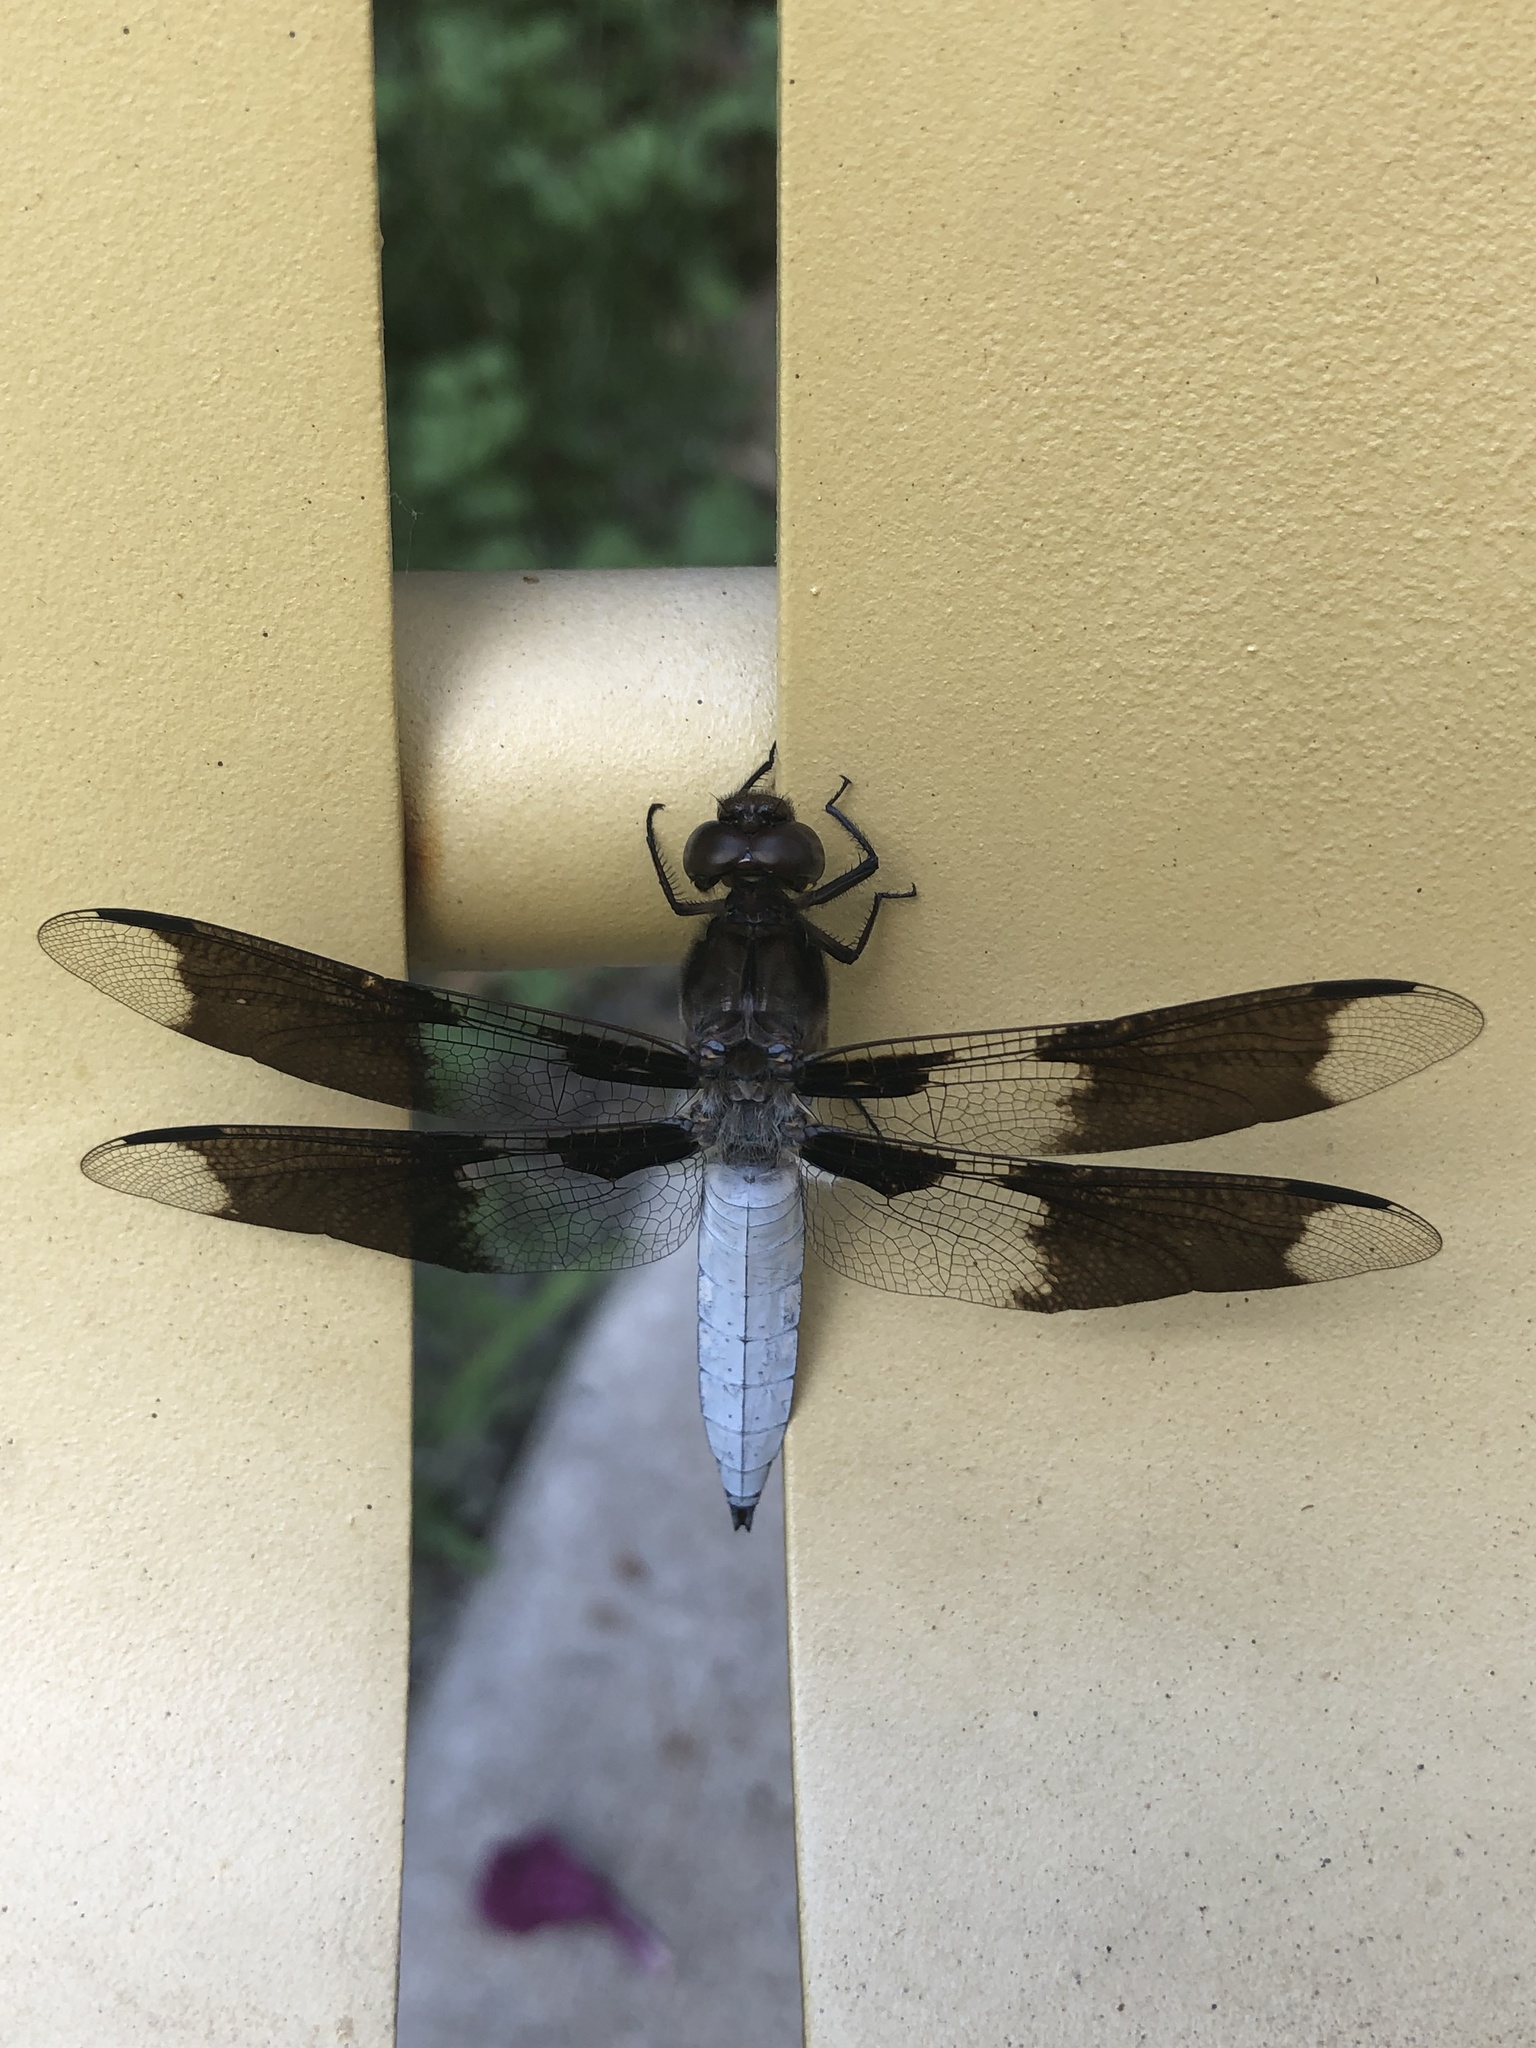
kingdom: Animalia
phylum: Arthropoda
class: Insecta
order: Odonata
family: Libellulidae
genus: Plathemis
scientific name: Plathemis lydia
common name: Common whitetail
